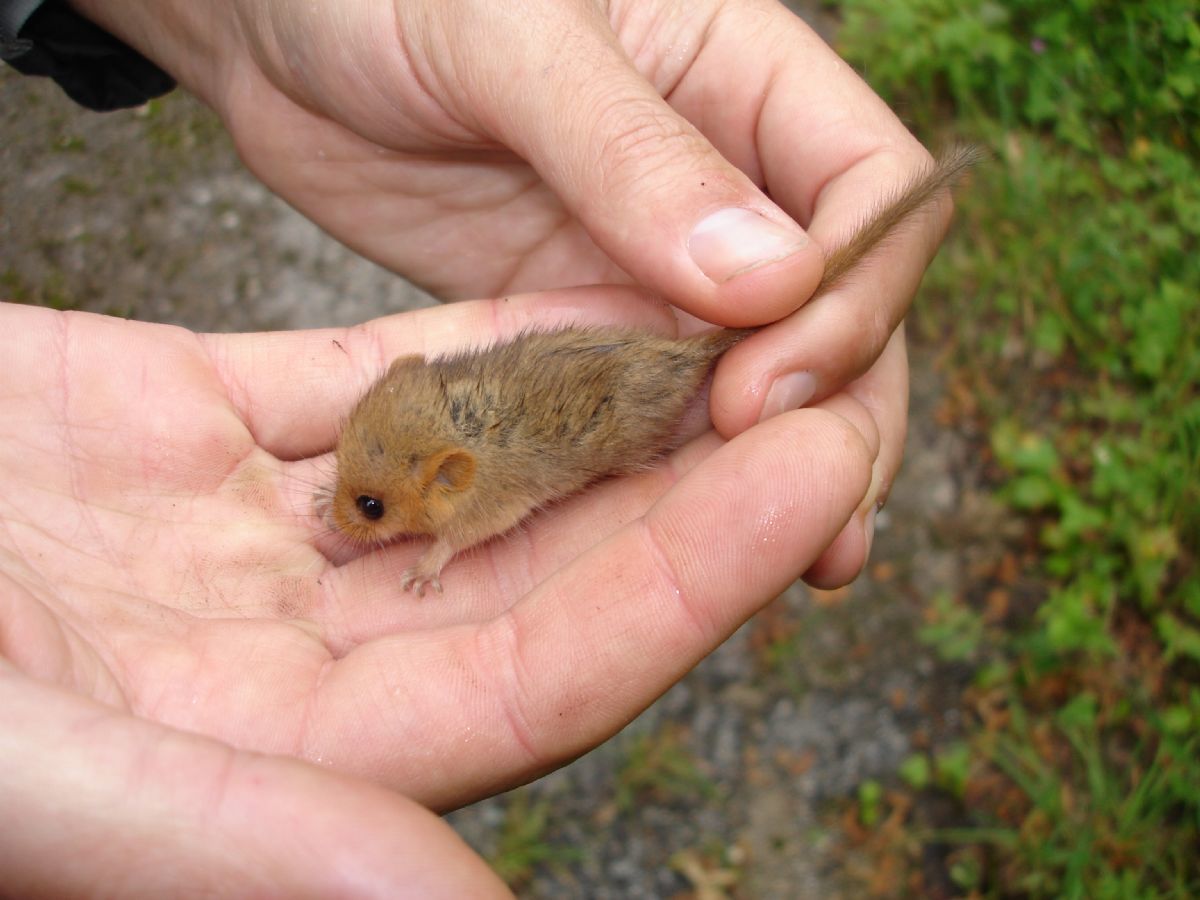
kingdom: Animalia
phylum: Chordata
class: Mammalia
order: Rodentia
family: Gliridae
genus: Muscardinus
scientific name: Muscardinus avellanarius
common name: Hazel dormouse
